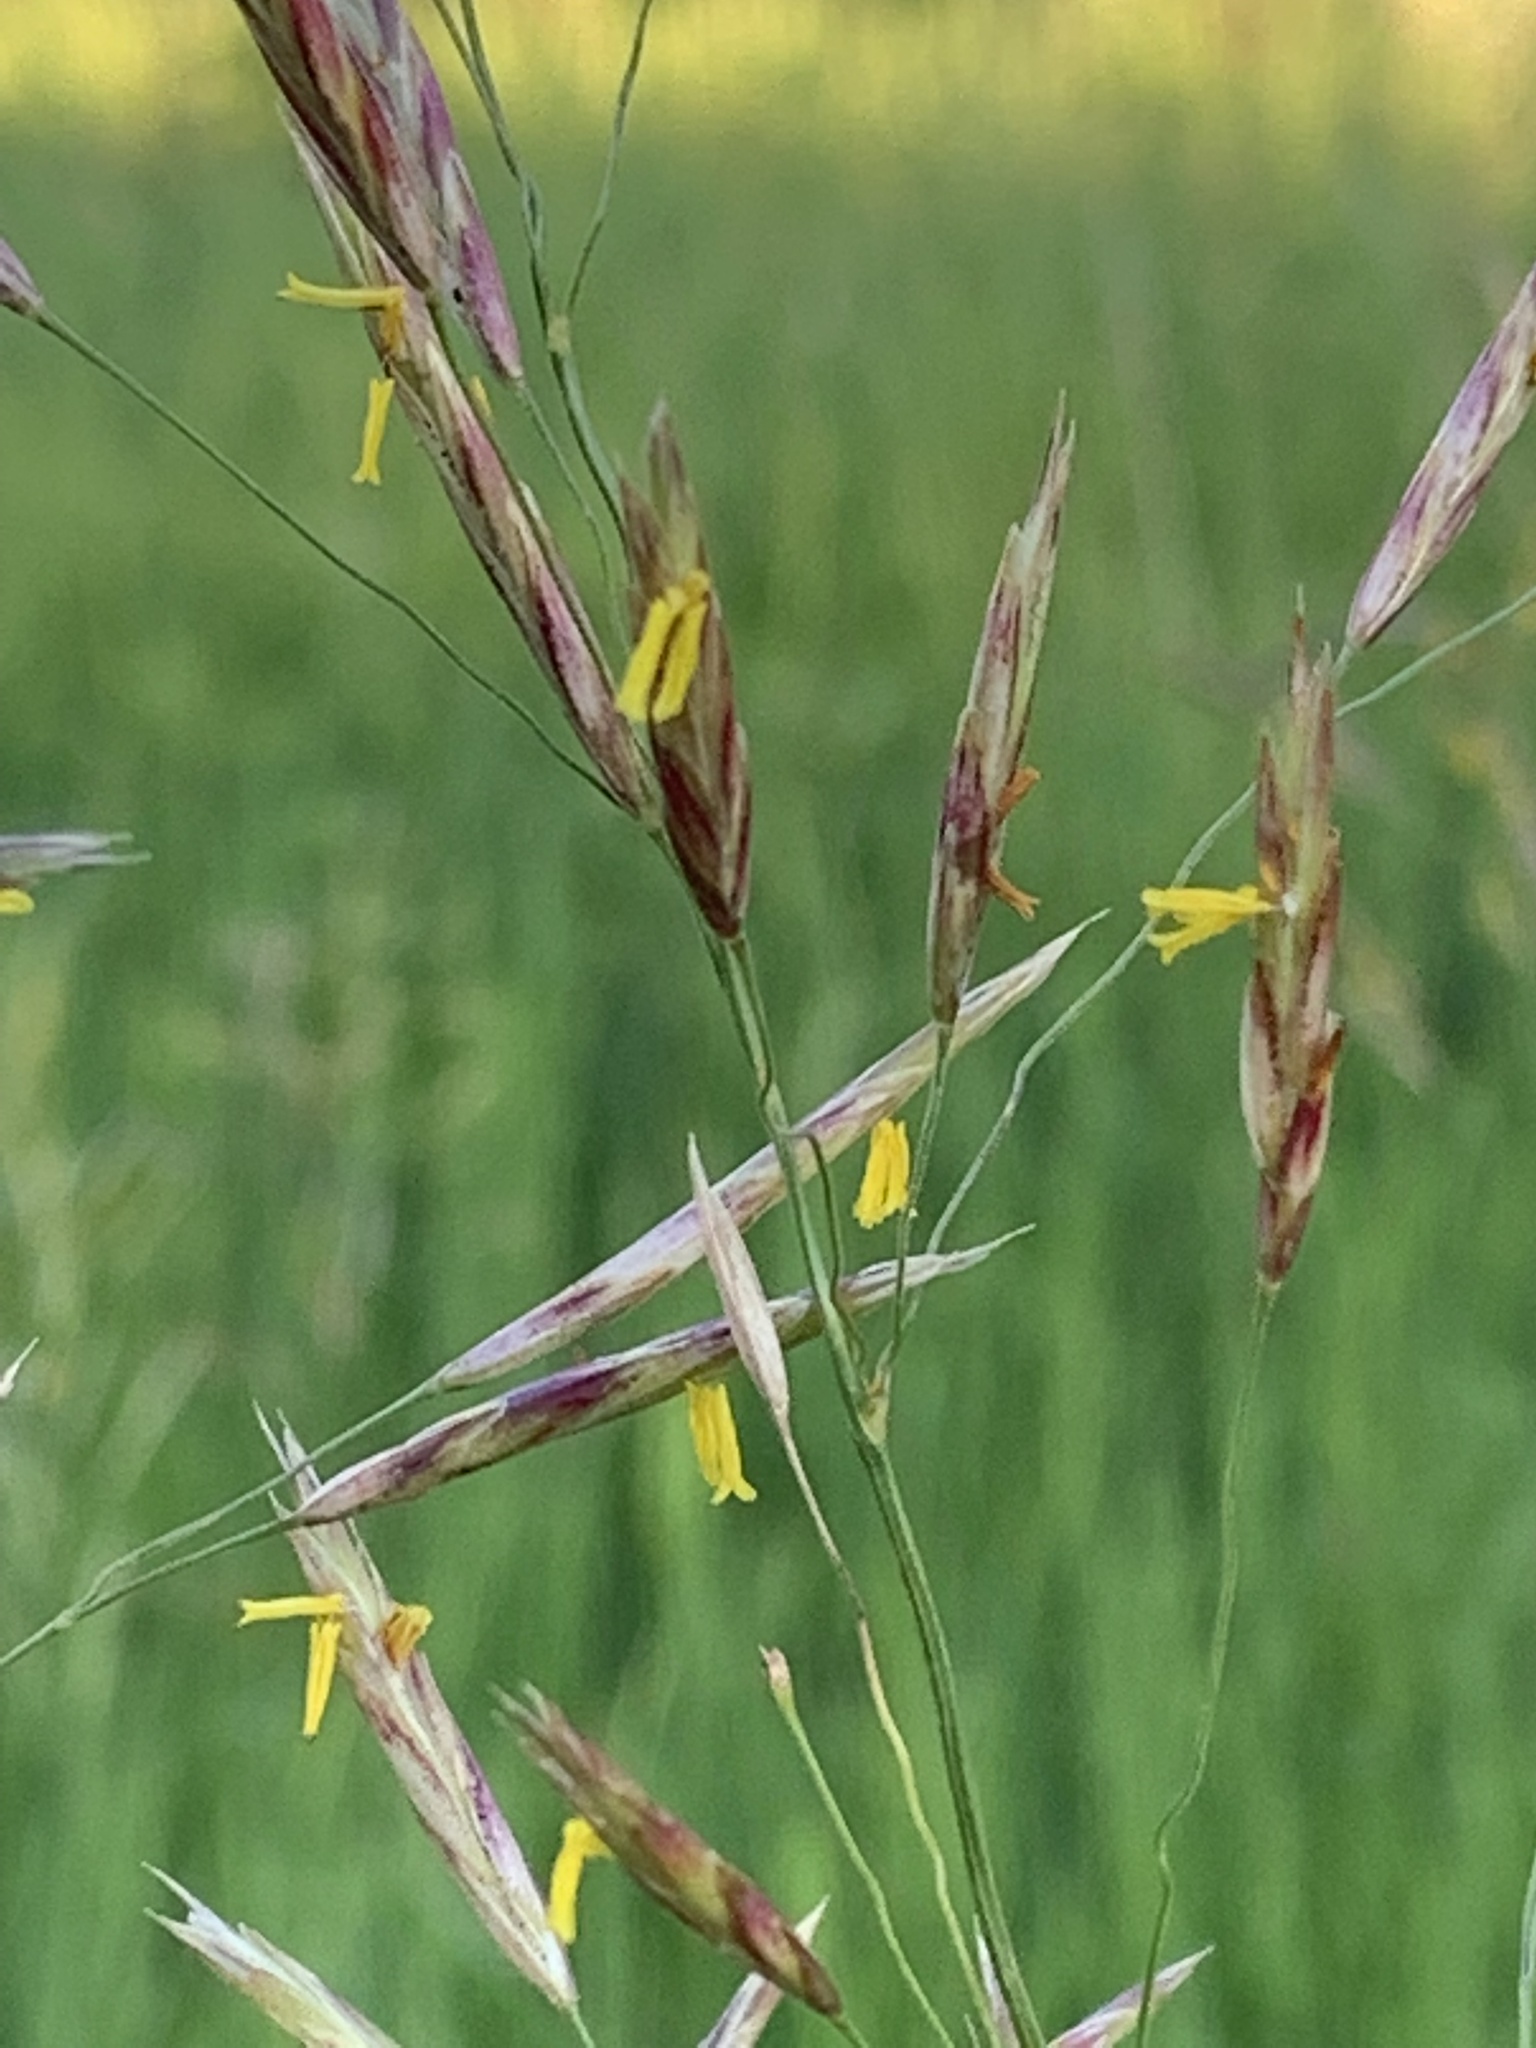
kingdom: Plantae
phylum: Tracheophyta
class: Liliopsida
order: Poales
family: Poaceae
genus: Bromus
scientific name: Bromus inermis
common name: Smooth brome
